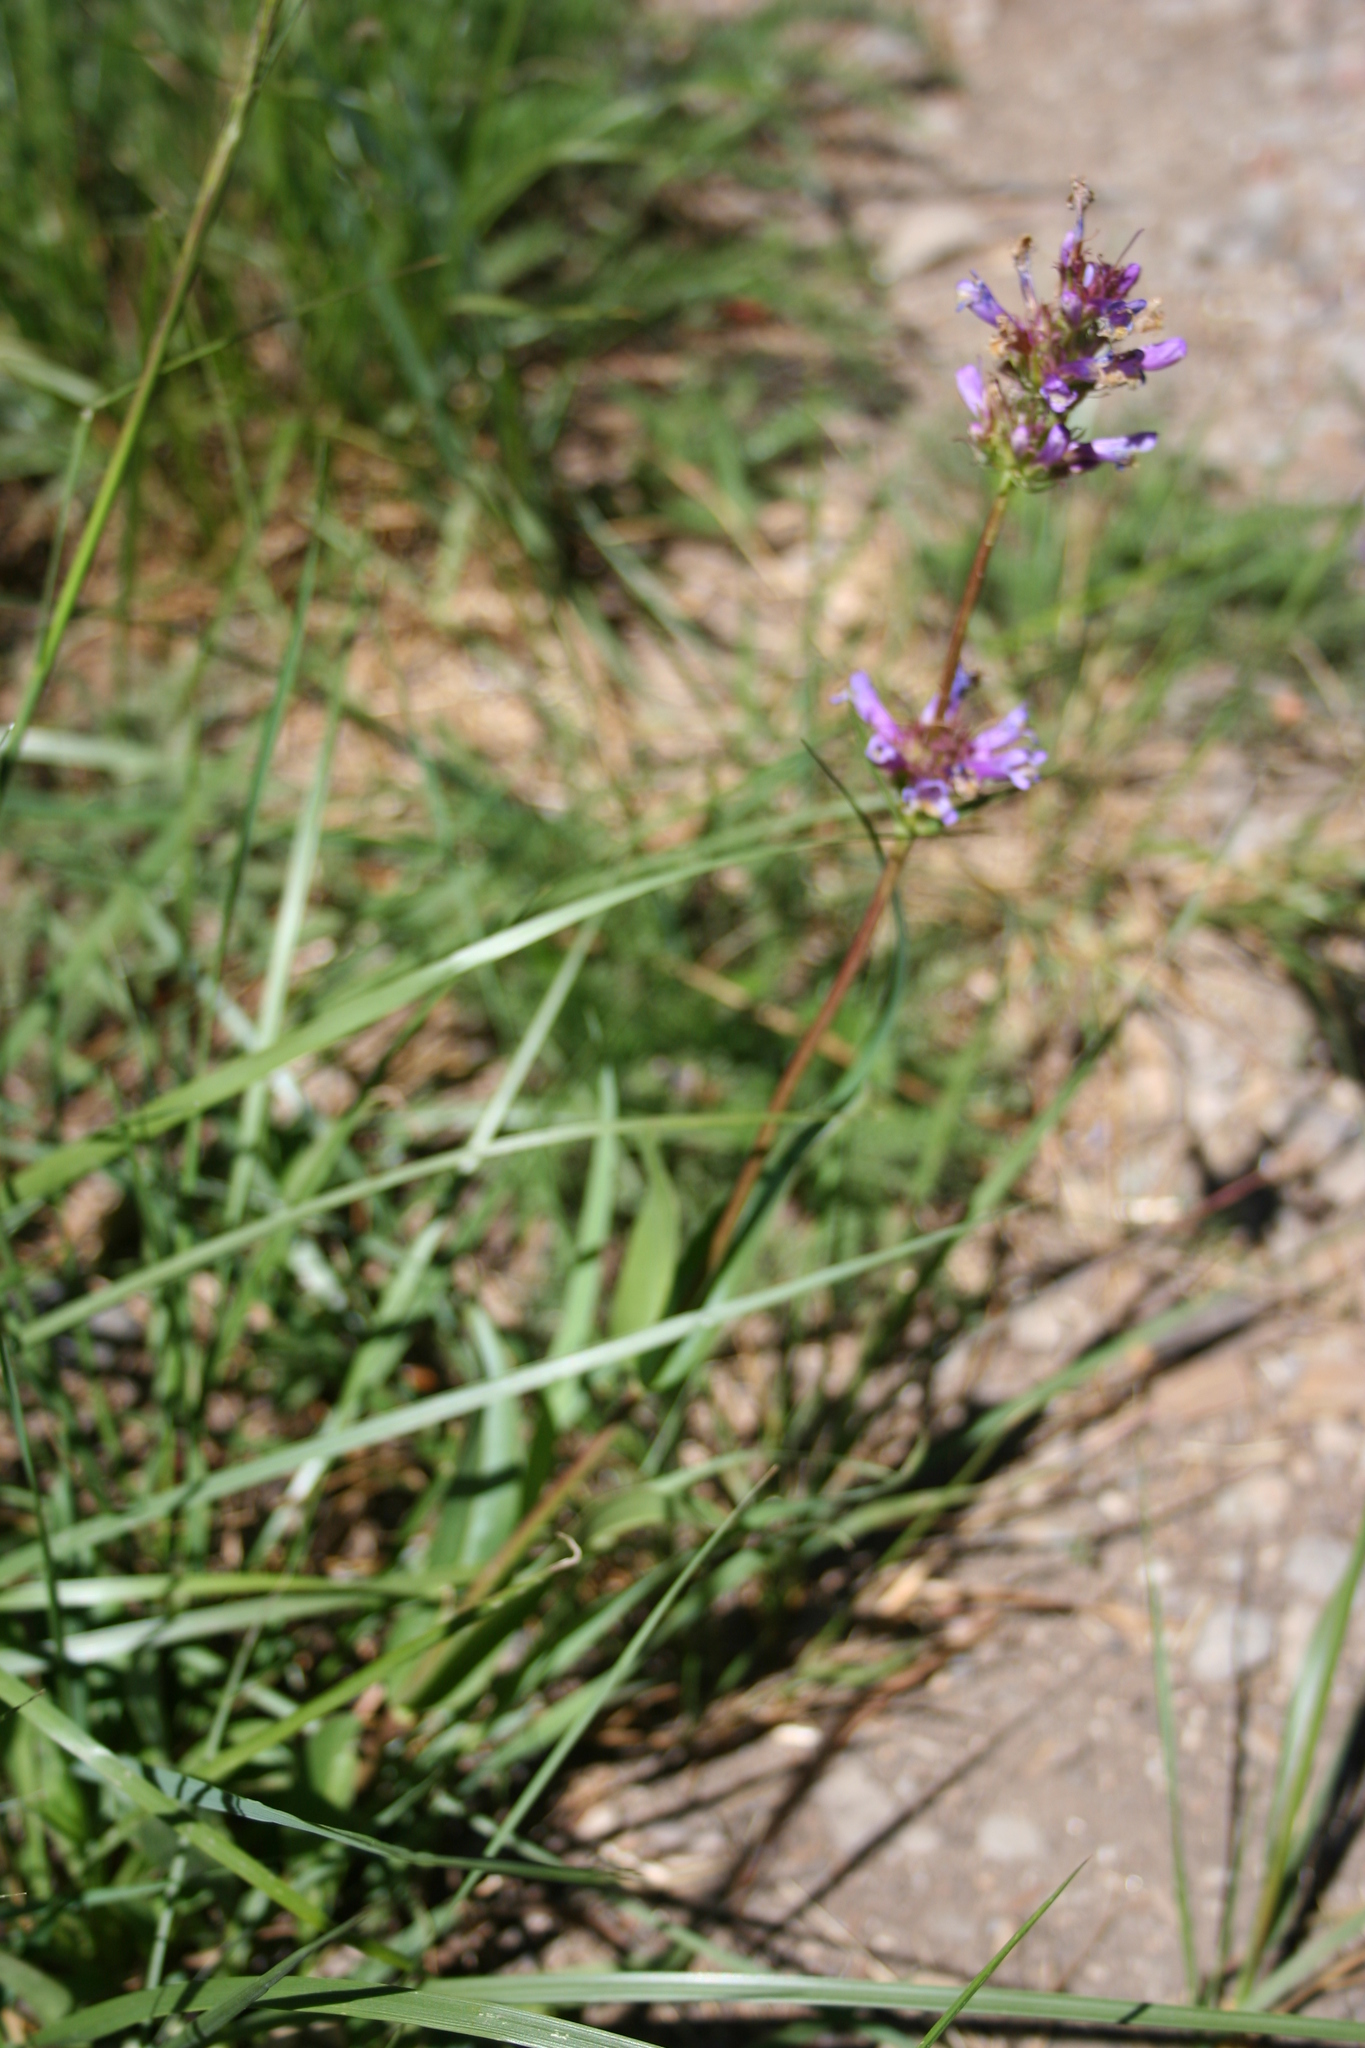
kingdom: Plantae
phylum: Tracheophyta
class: Magnoliopsida
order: Lamiales
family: Plantaginaceae
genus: Penstemon
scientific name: Penstemon rydbergii
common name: Rydberg's beardtongue
